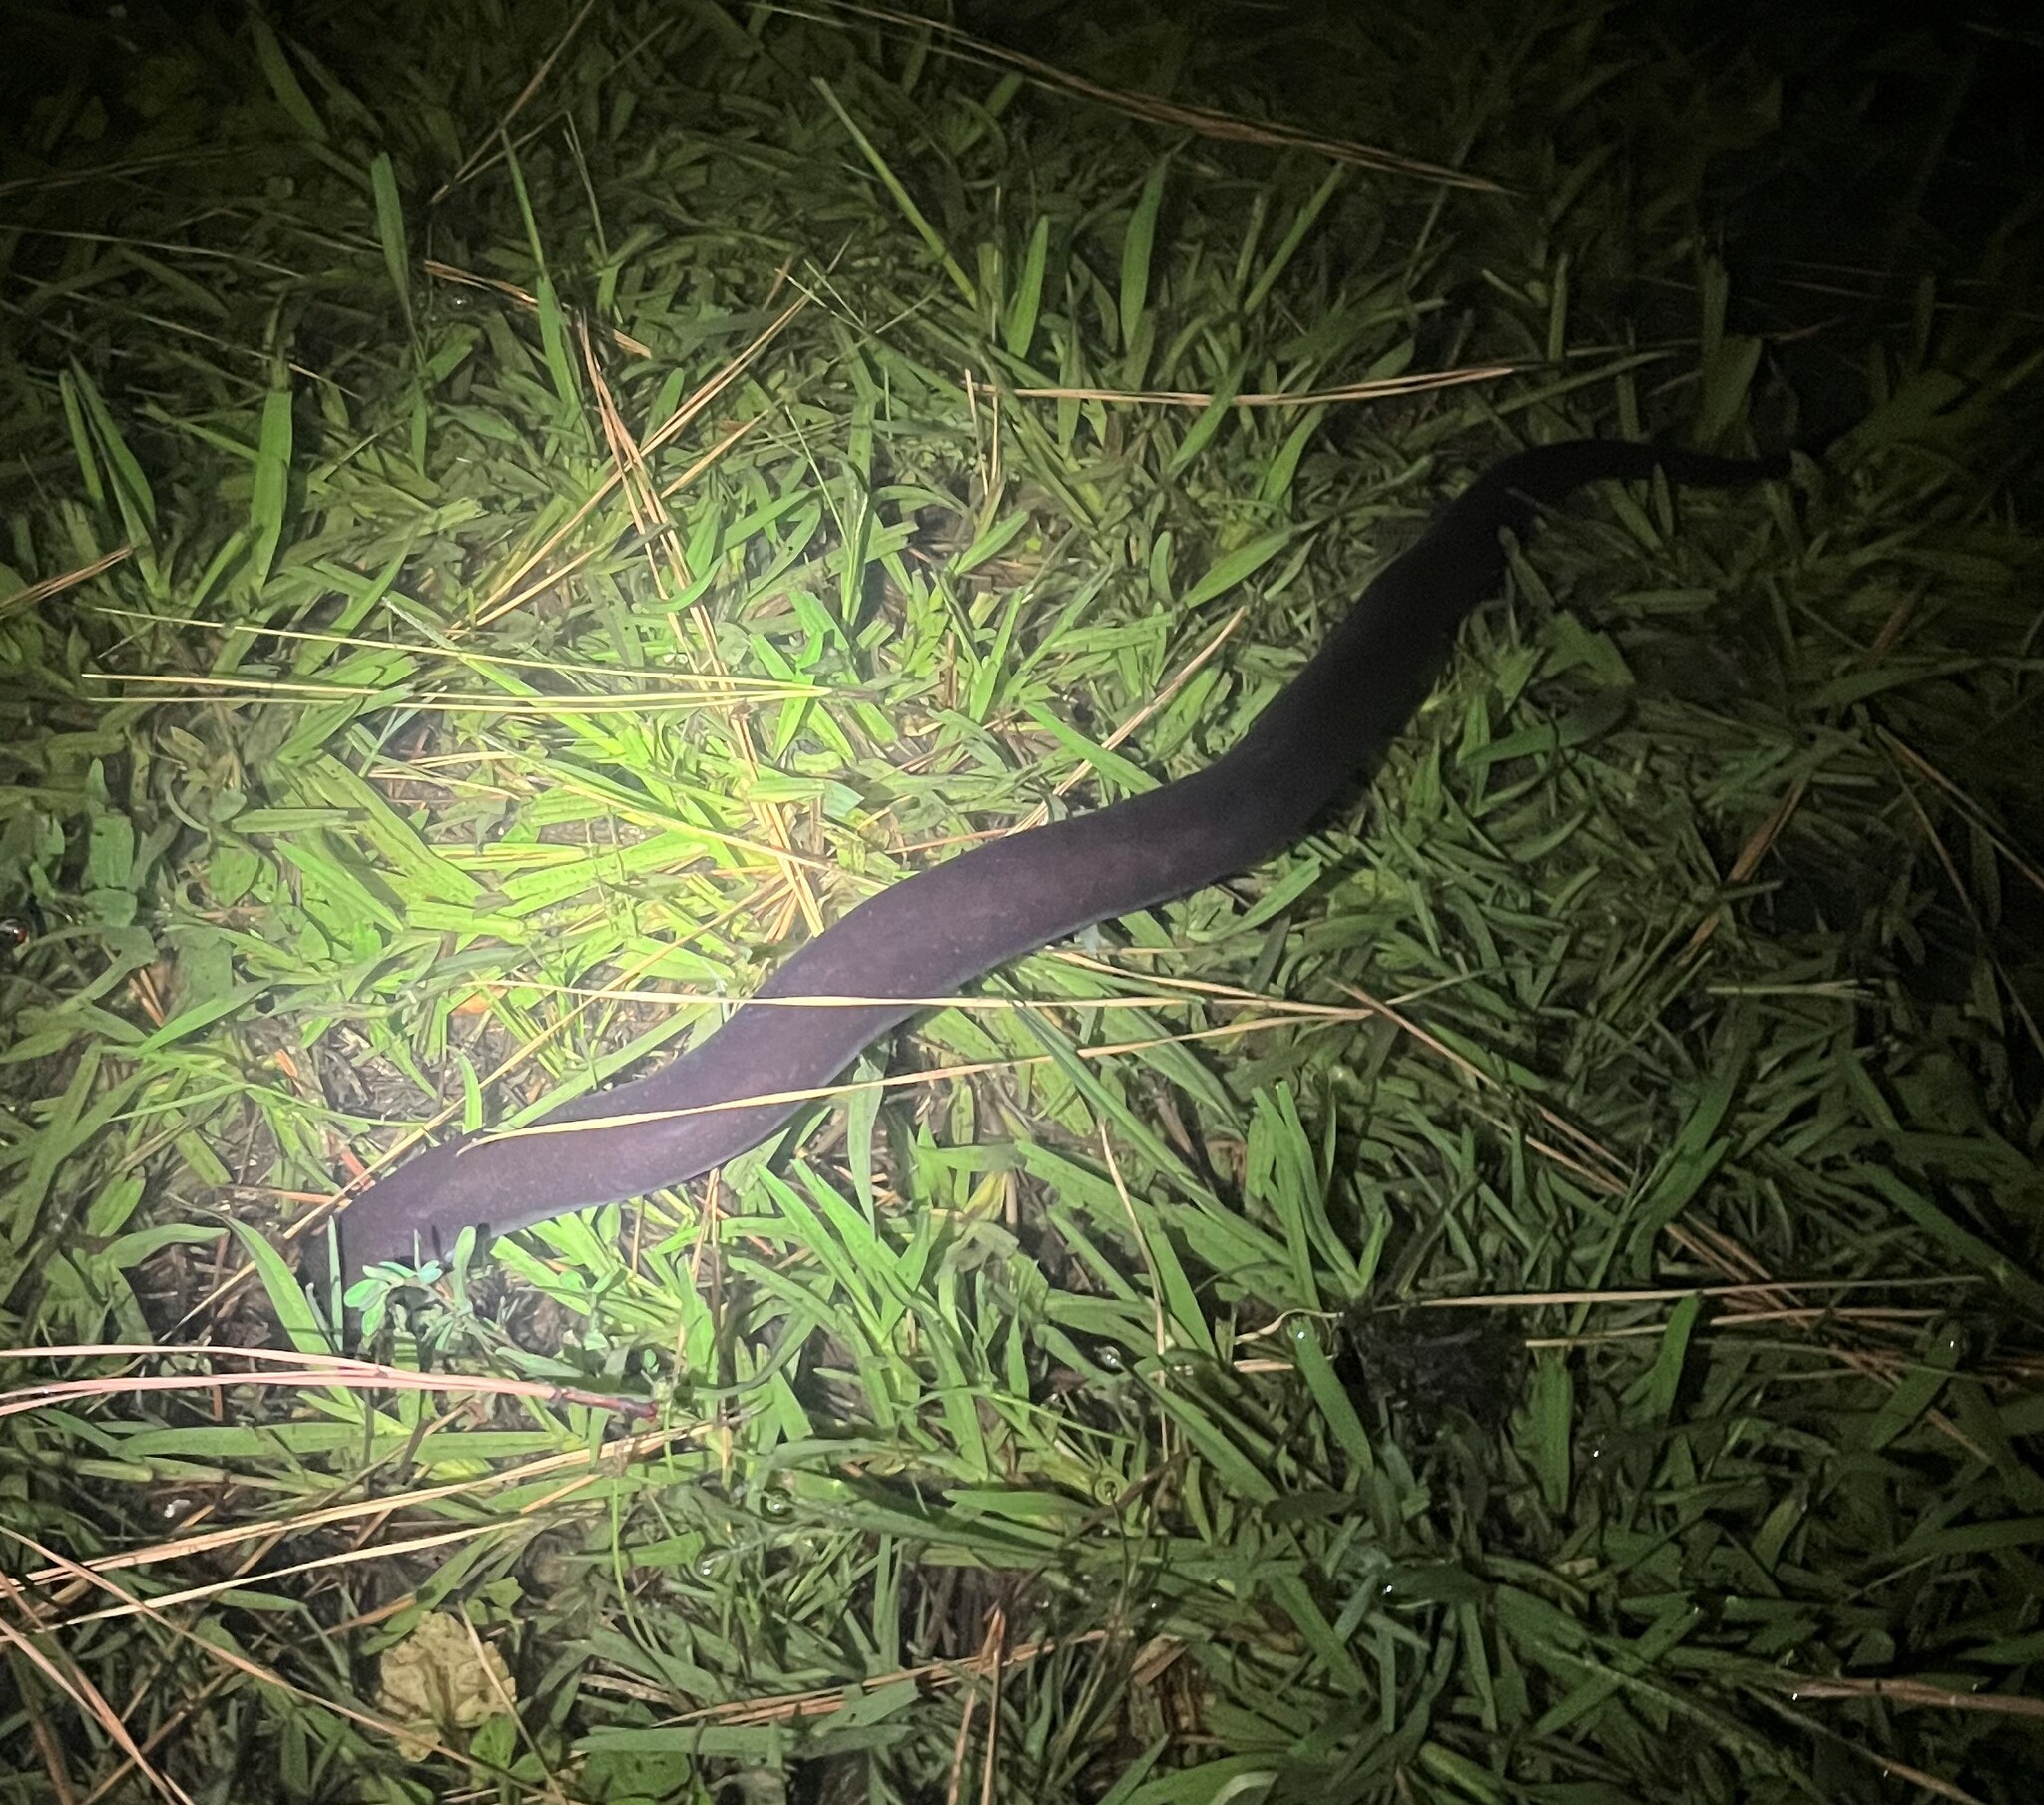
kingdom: Animalia
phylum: Chordata
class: Amphibia
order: Caudata
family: Amphiumidae
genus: Amphiuma
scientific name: Amphiuma means
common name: Two-toed amphiuma
